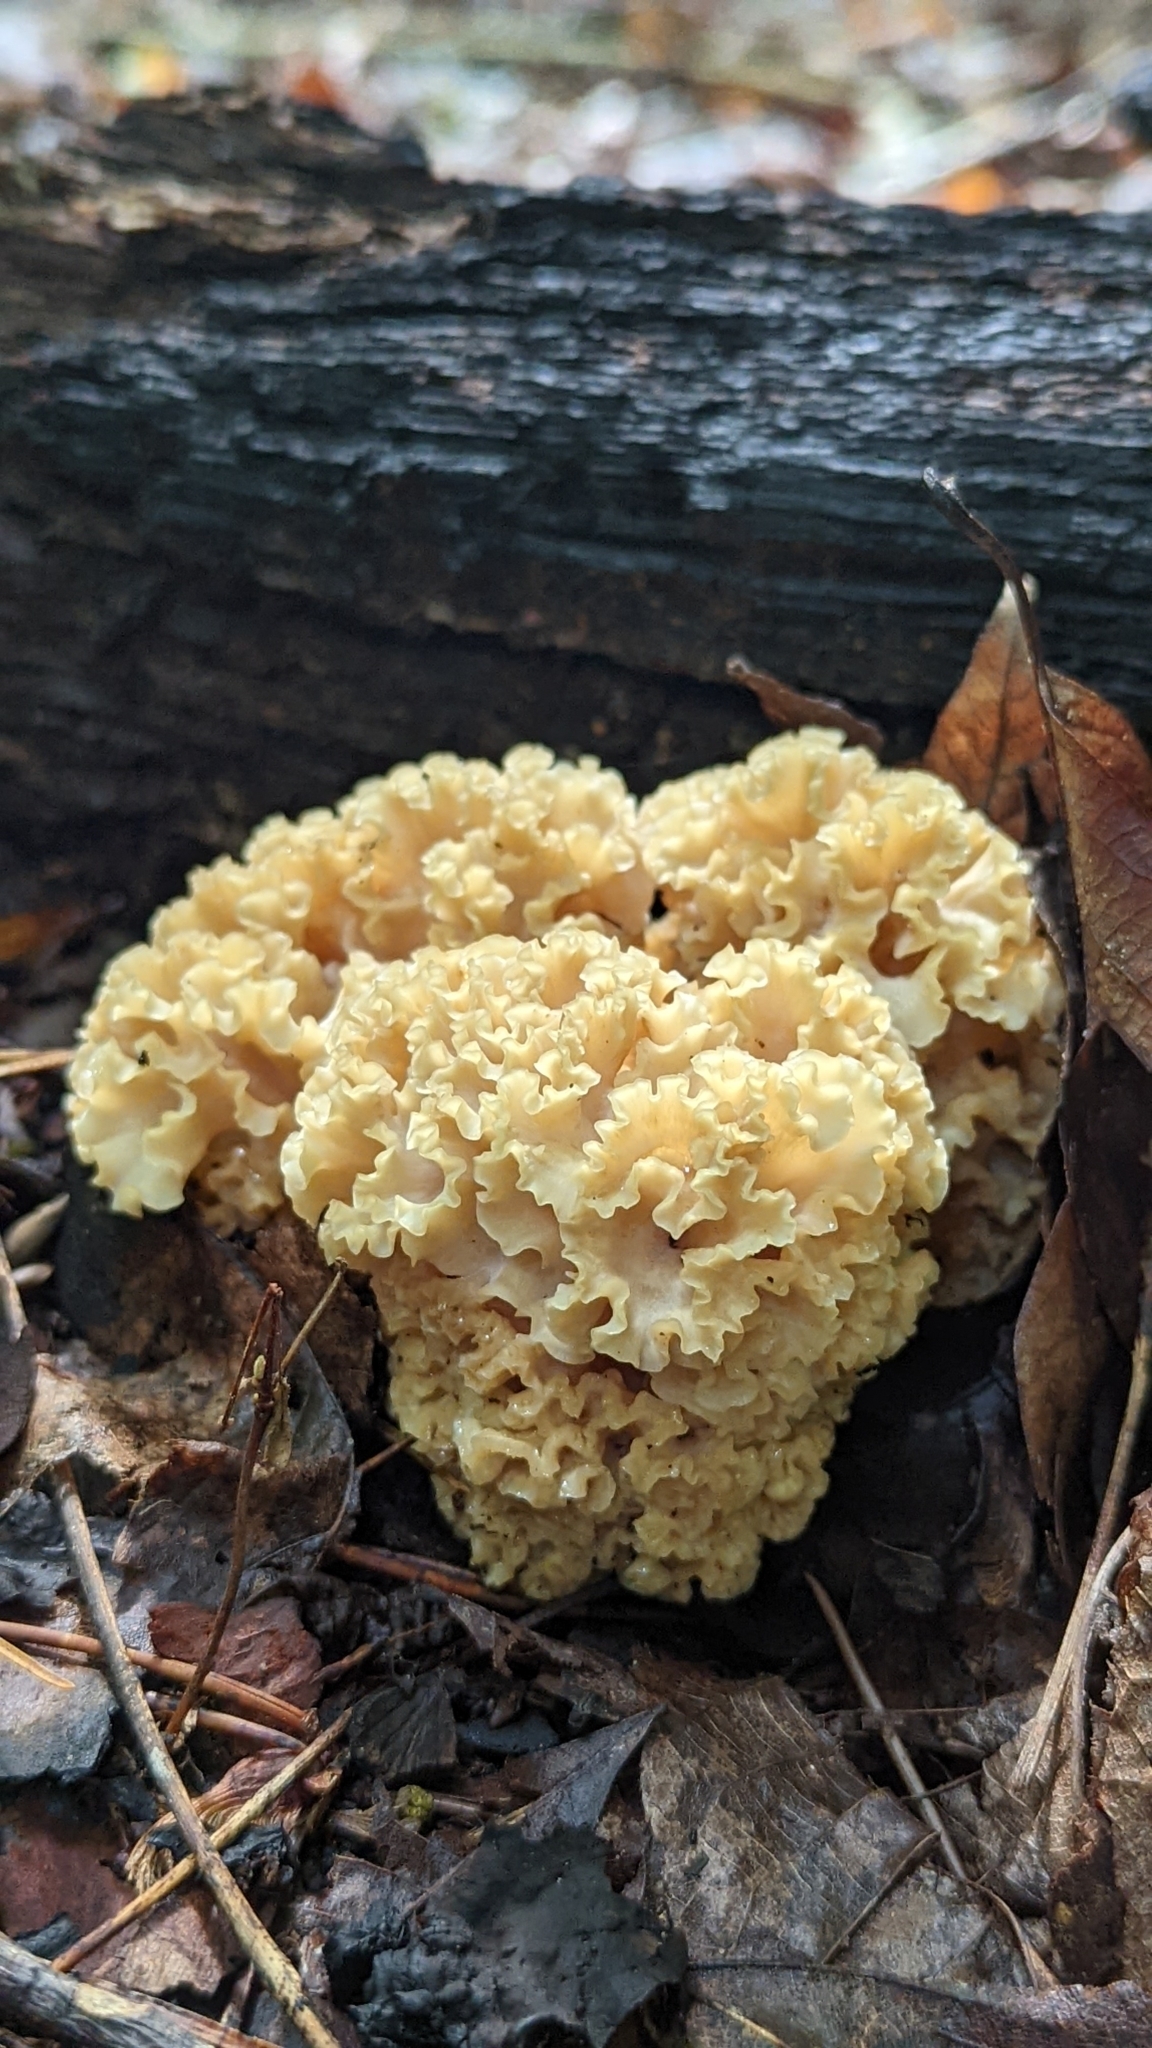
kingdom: Fungi
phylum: Basidiomycota
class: Agaricomycetes
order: Polyporales
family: Sparassidaceae
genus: Sparassis
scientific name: Sparassis americana
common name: American cauliflower mushroom
